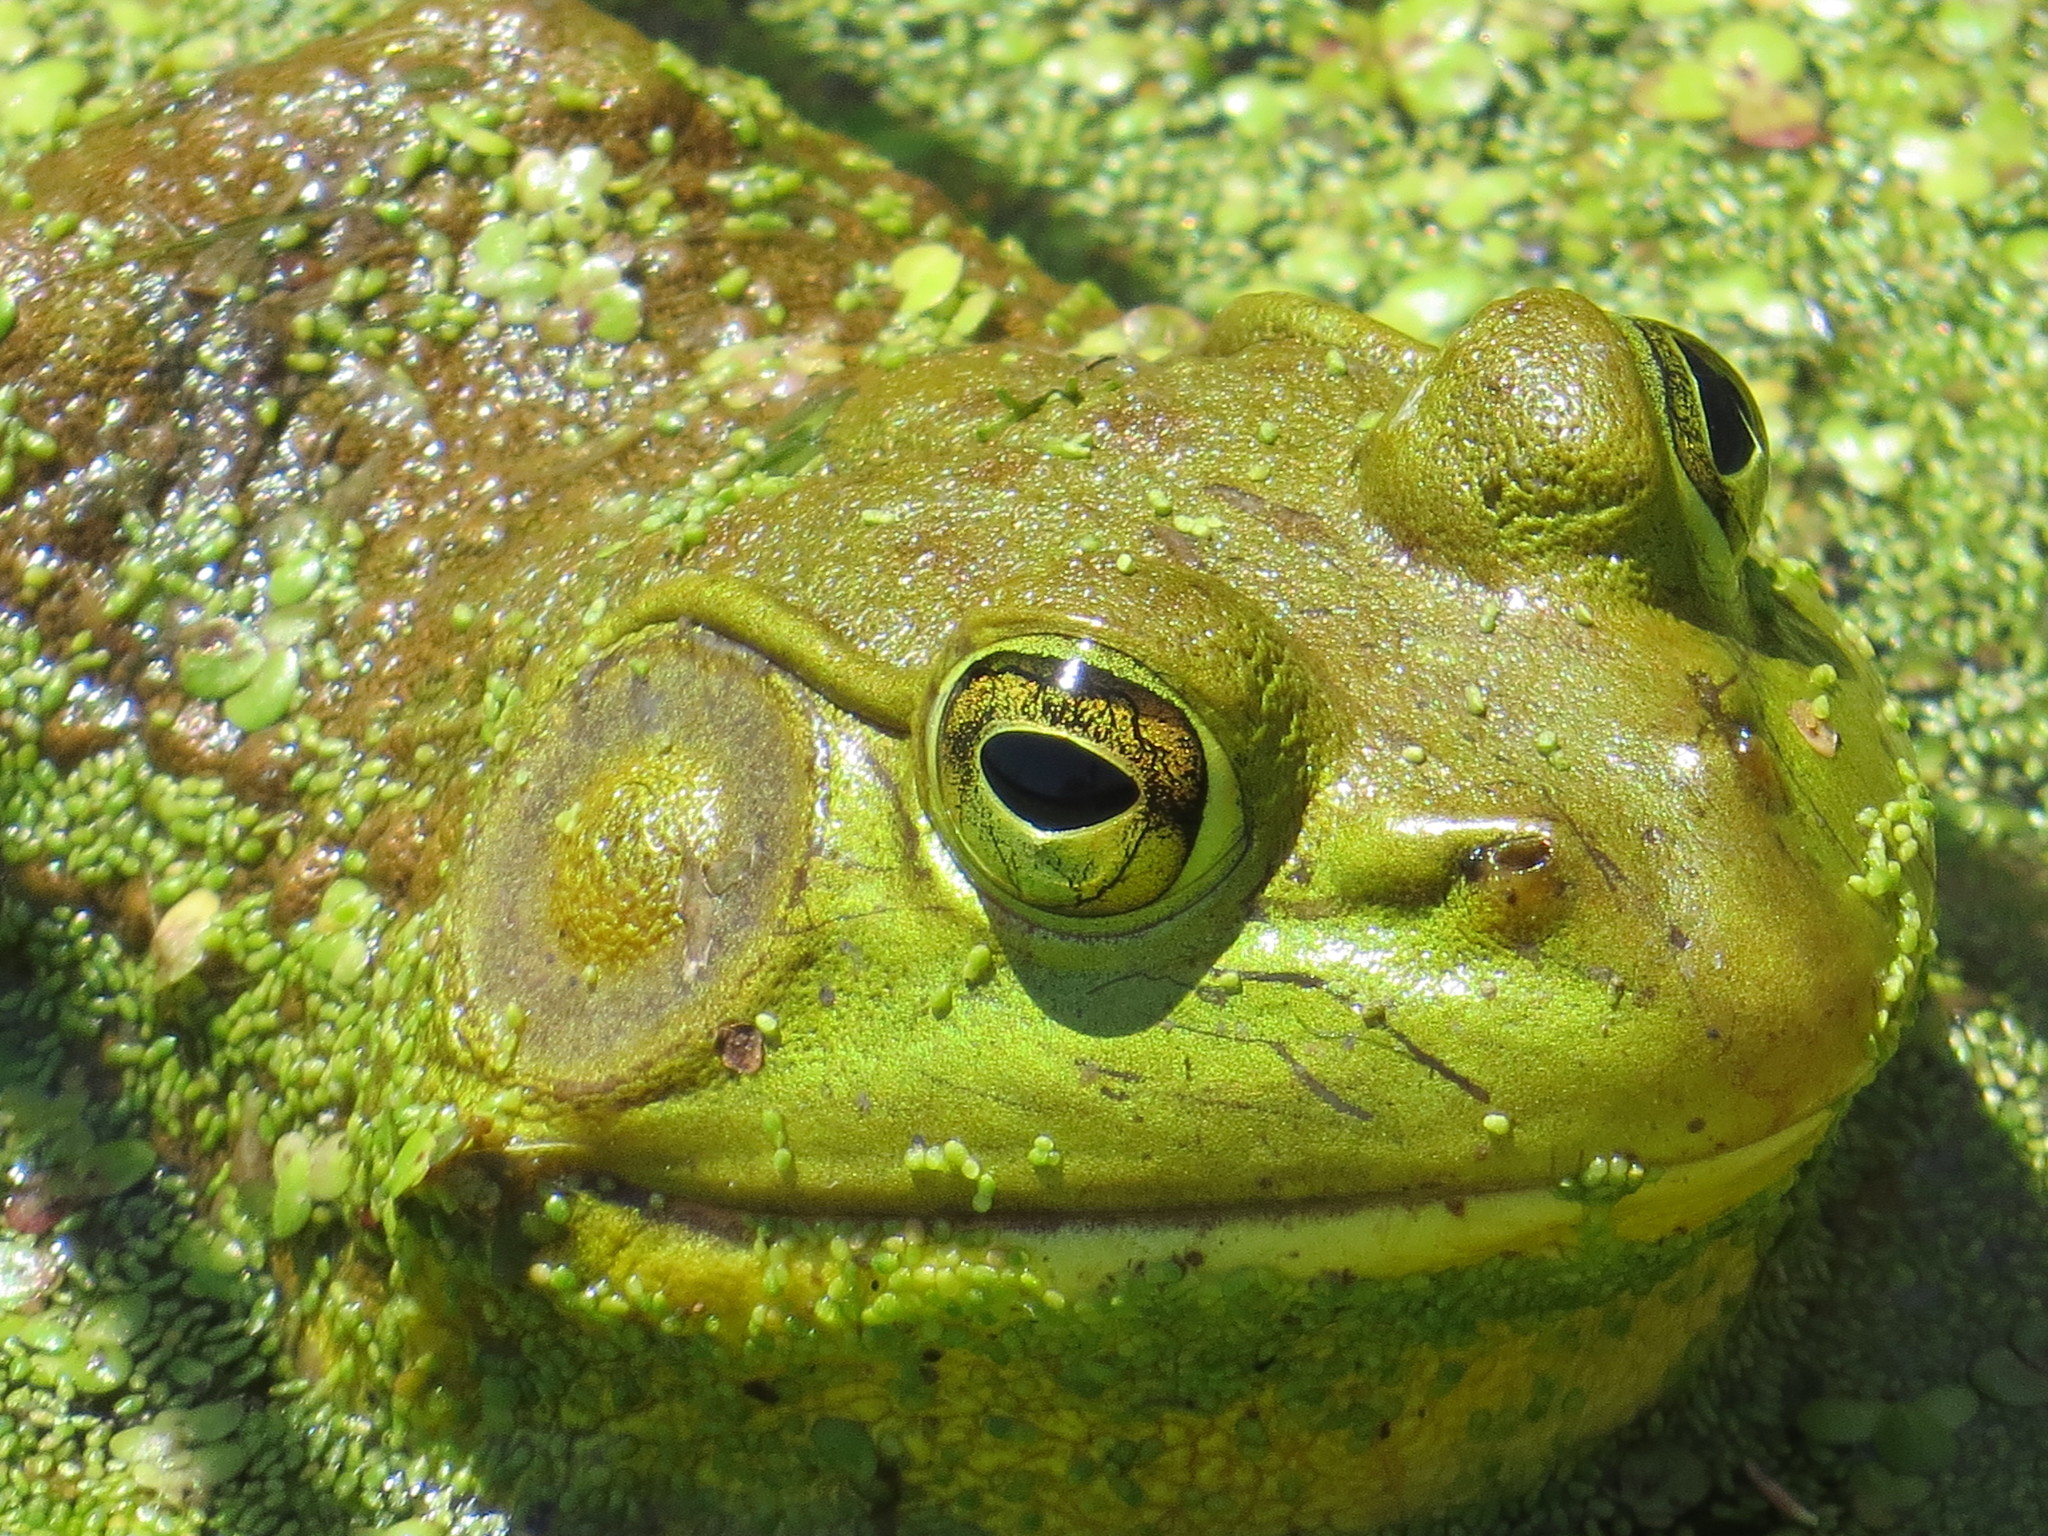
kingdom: Animalia
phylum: Chordata
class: Amphibia
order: Anura
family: Ranidae
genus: Lithobates
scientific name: Lithobates catesbeianus
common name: American bullfrog
